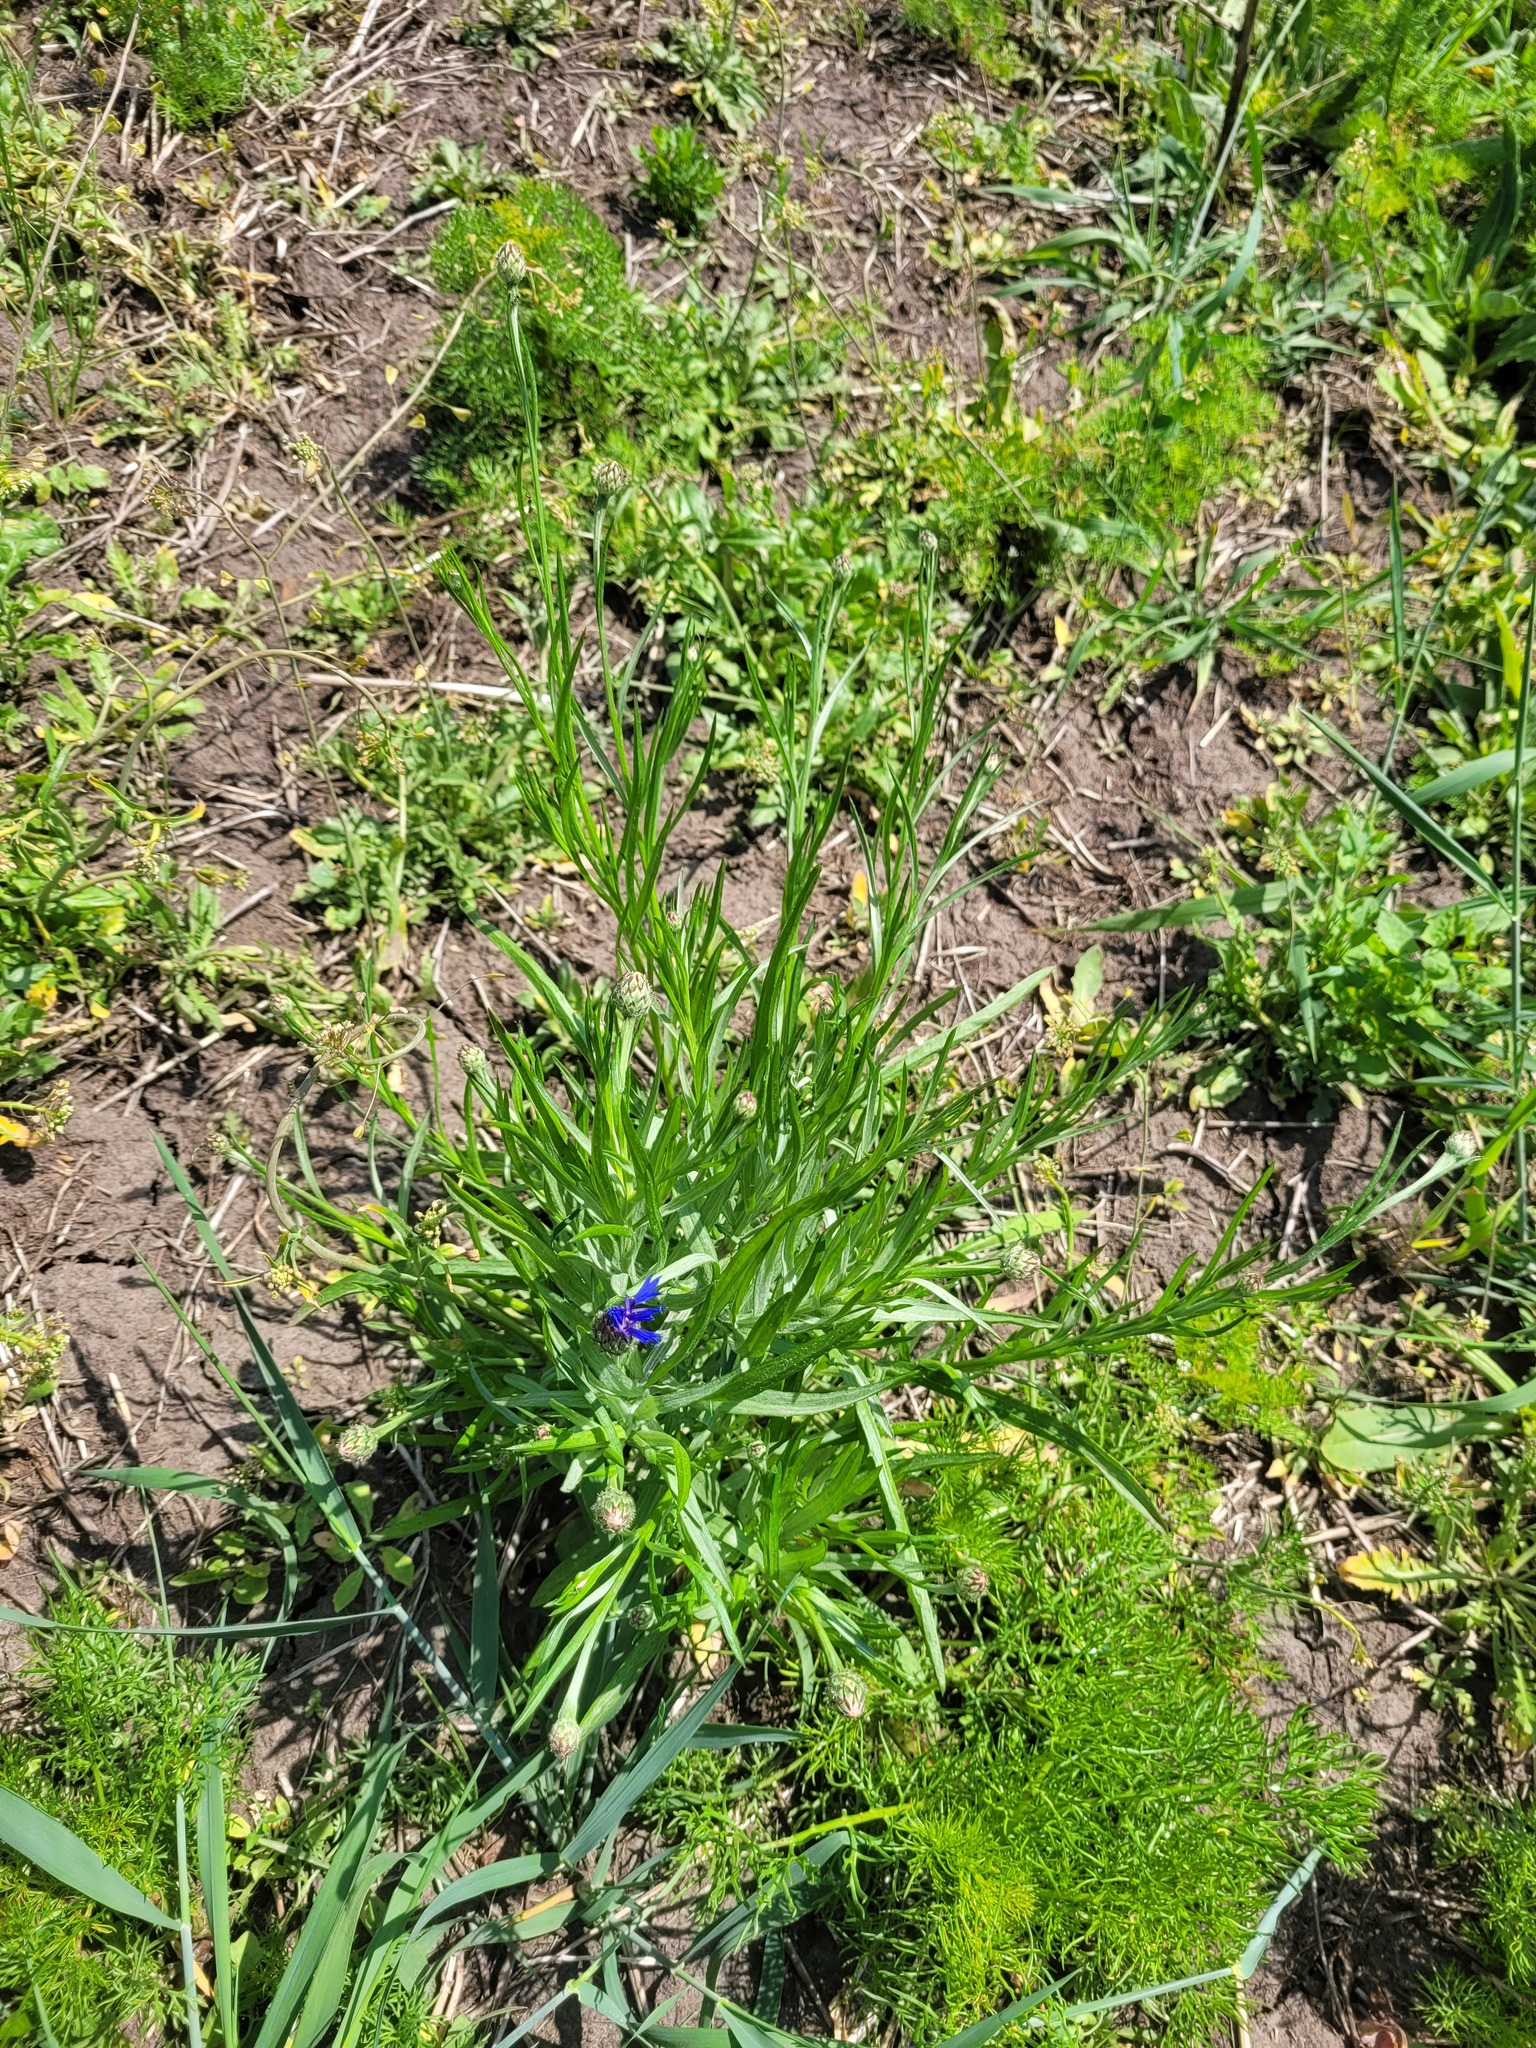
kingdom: Plantae
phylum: Tracheophyta
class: Magnoliopsida
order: Asterales
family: Asteraceae
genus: Centaurea
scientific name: Centaurea cyanus
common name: Cornflower
